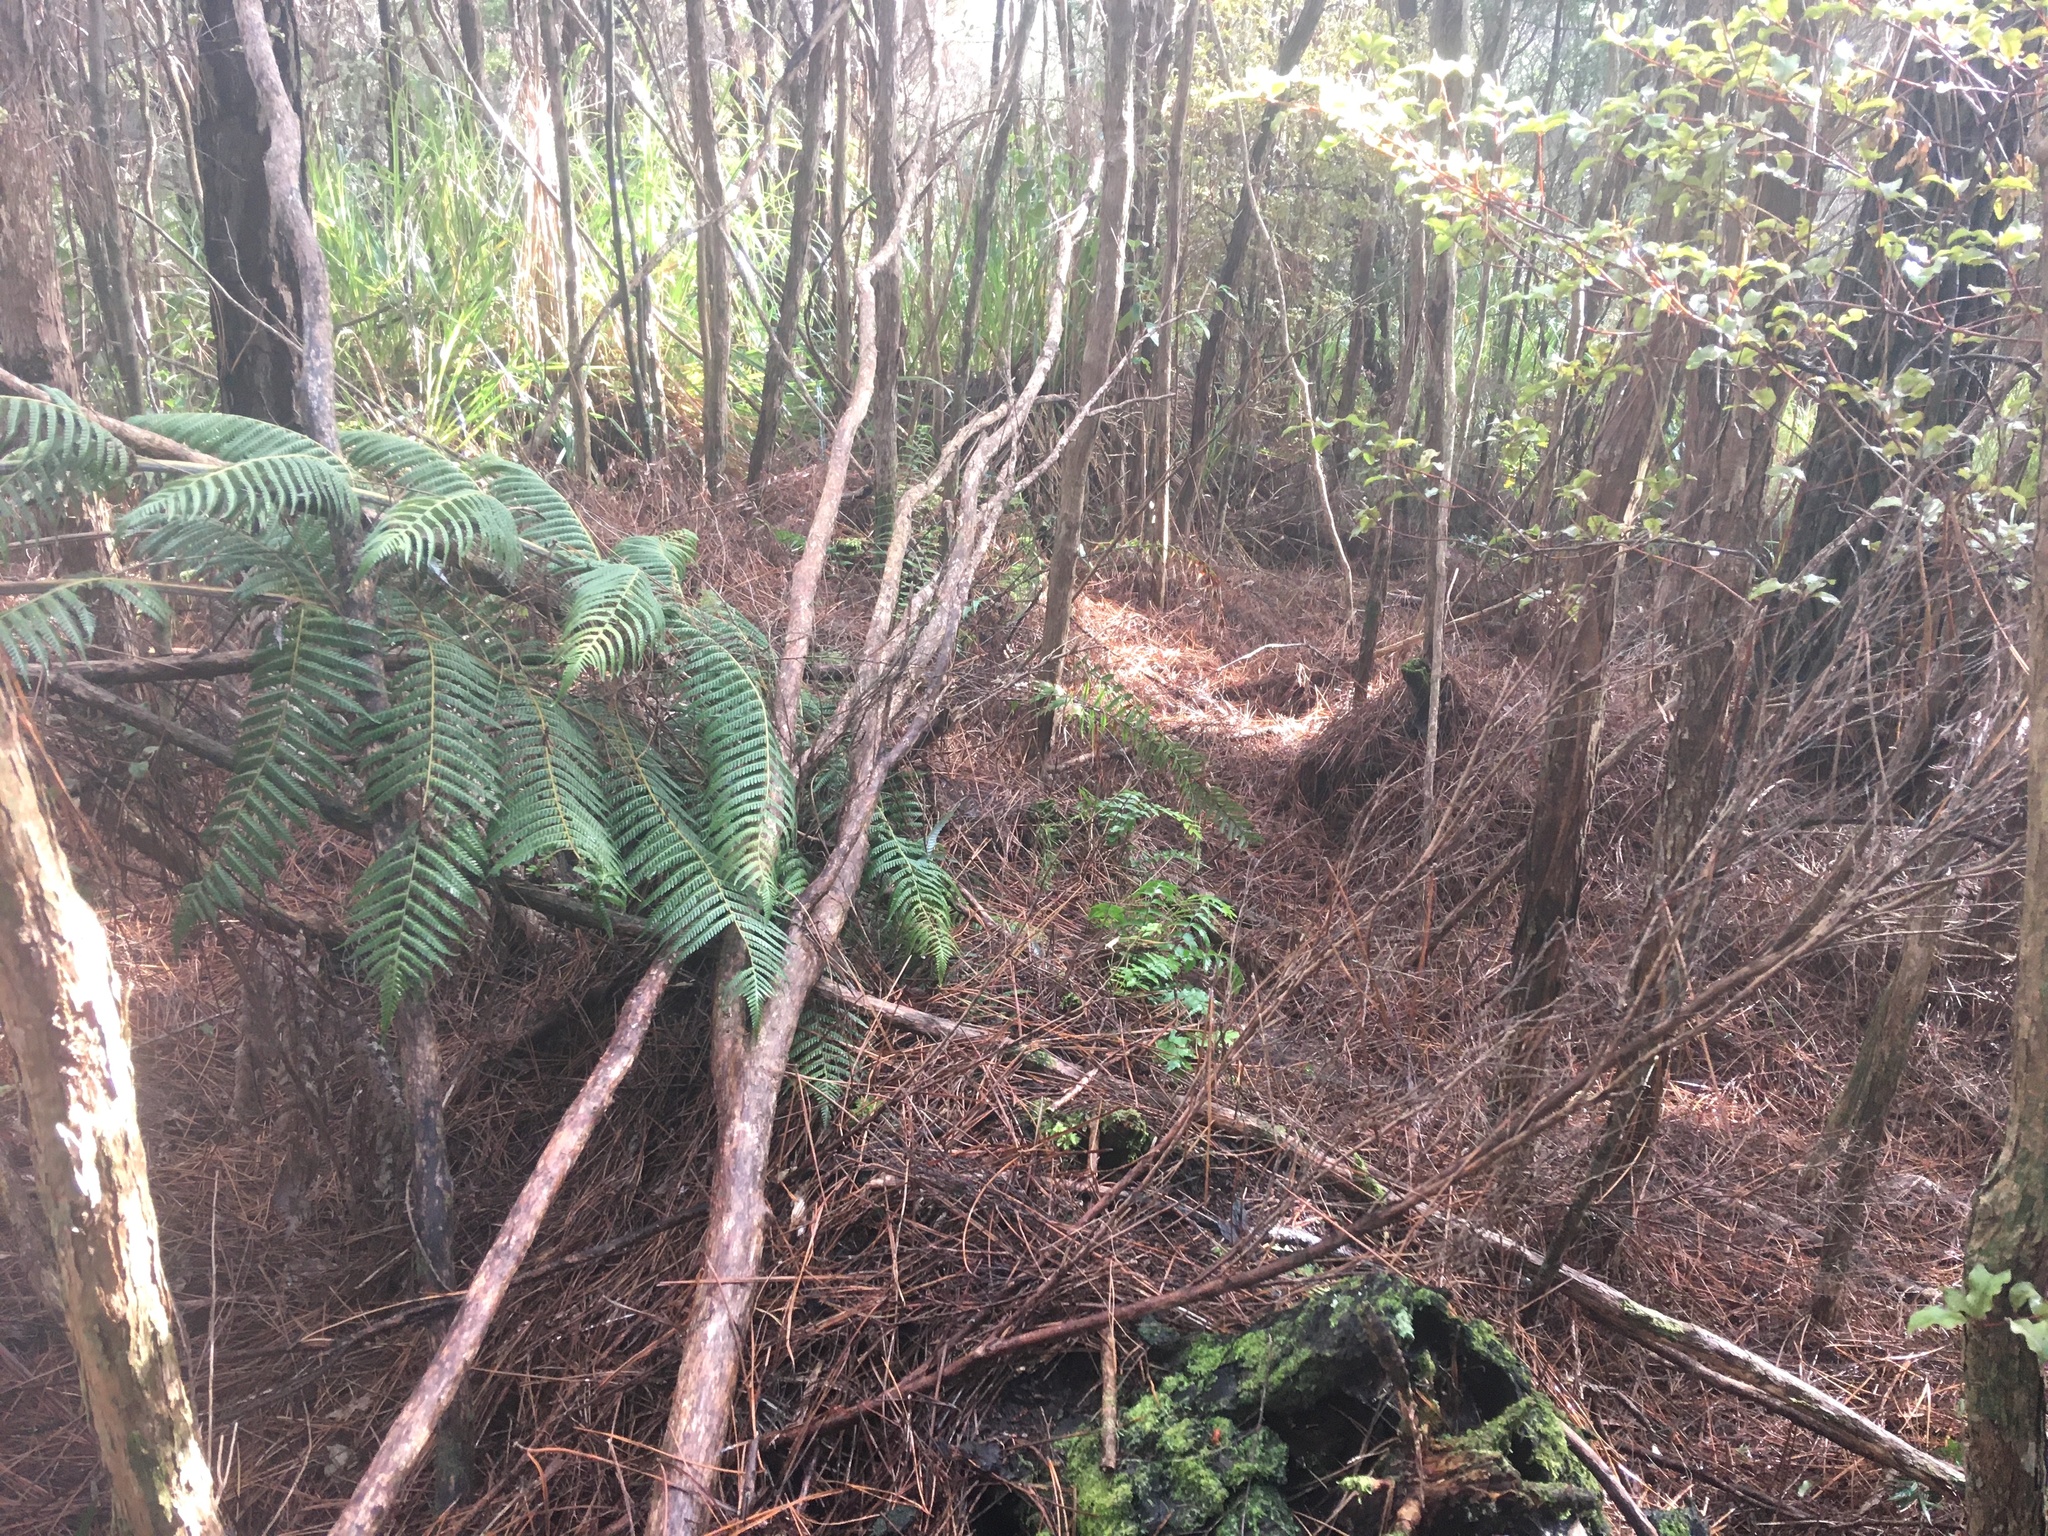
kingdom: Plantae
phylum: Tracheophyta
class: Polypodiopsida
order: Polypodiales
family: Aspleniaceae
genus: Asplenium
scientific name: Asplenium polyodon
